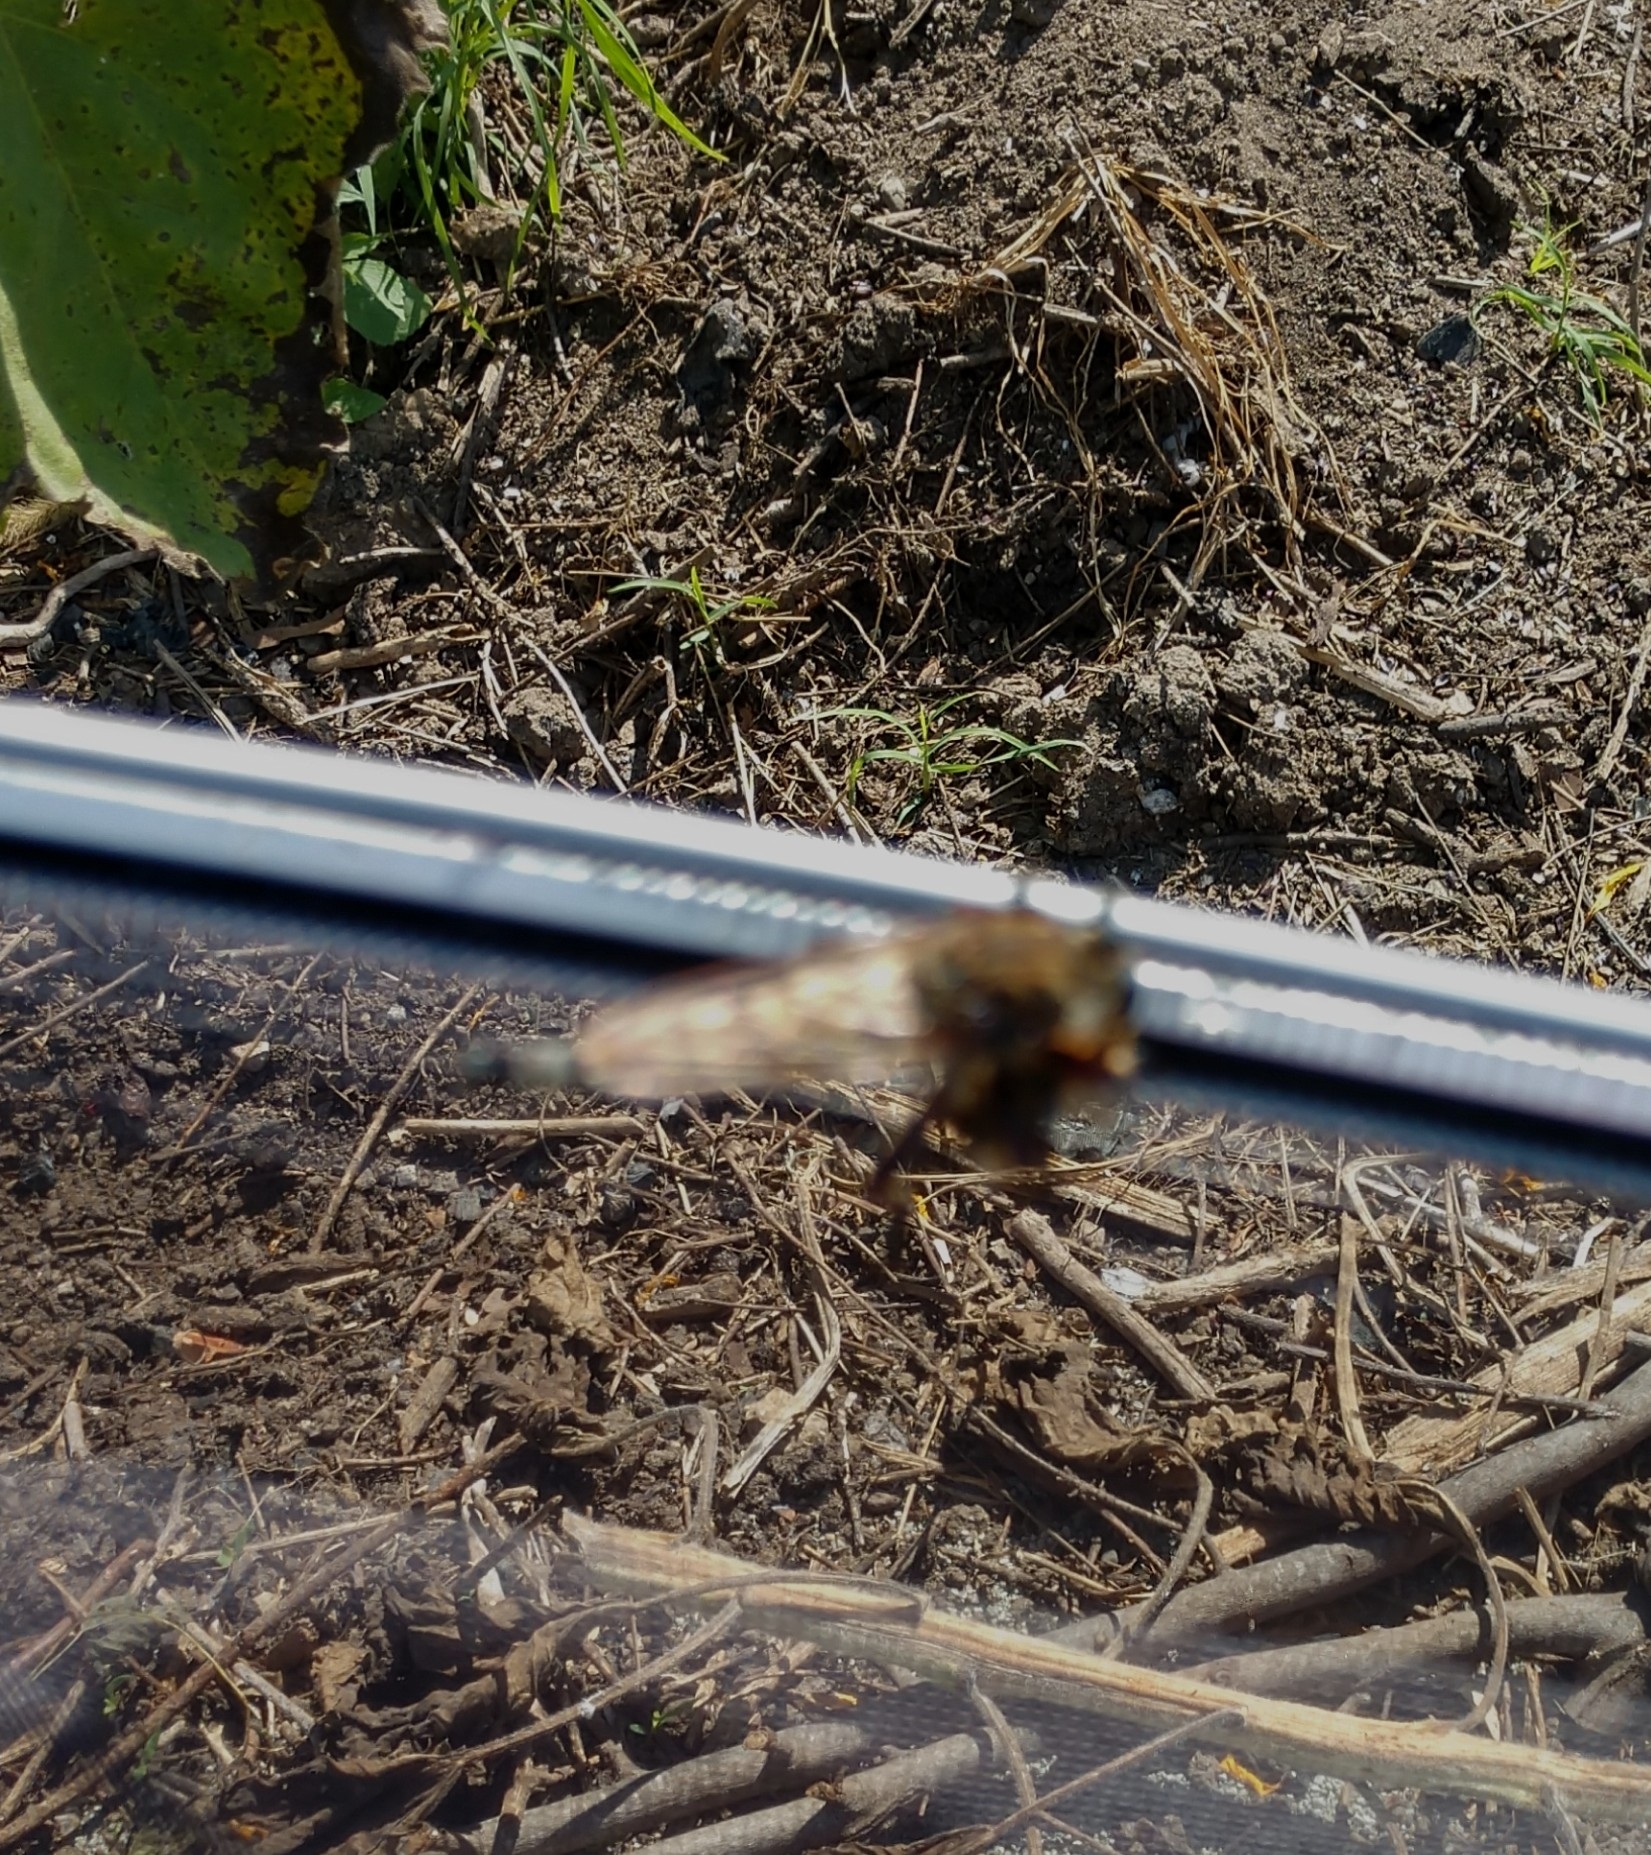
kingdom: Animalia
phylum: Arthropoda
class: Insecta
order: Diptera
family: Asilidae
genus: Promachus
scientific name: Promachus hinei
